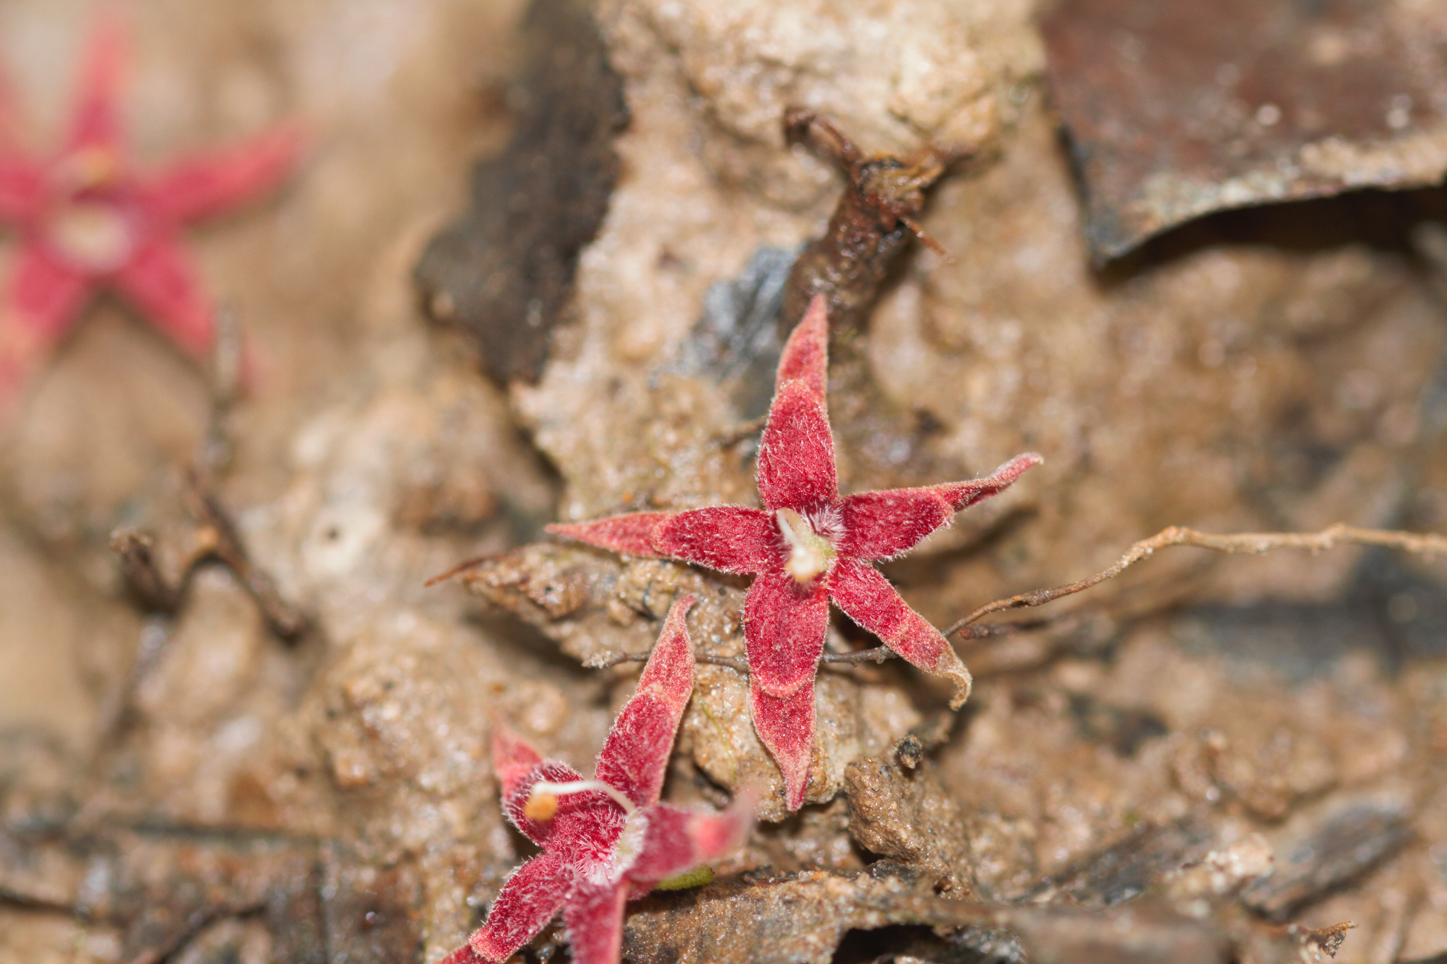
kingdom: Plantae
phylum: Tracheophyta
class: Magnoliopsida
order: Malvales
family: Malvaceae
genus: Sterculia
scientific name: Sterculia
